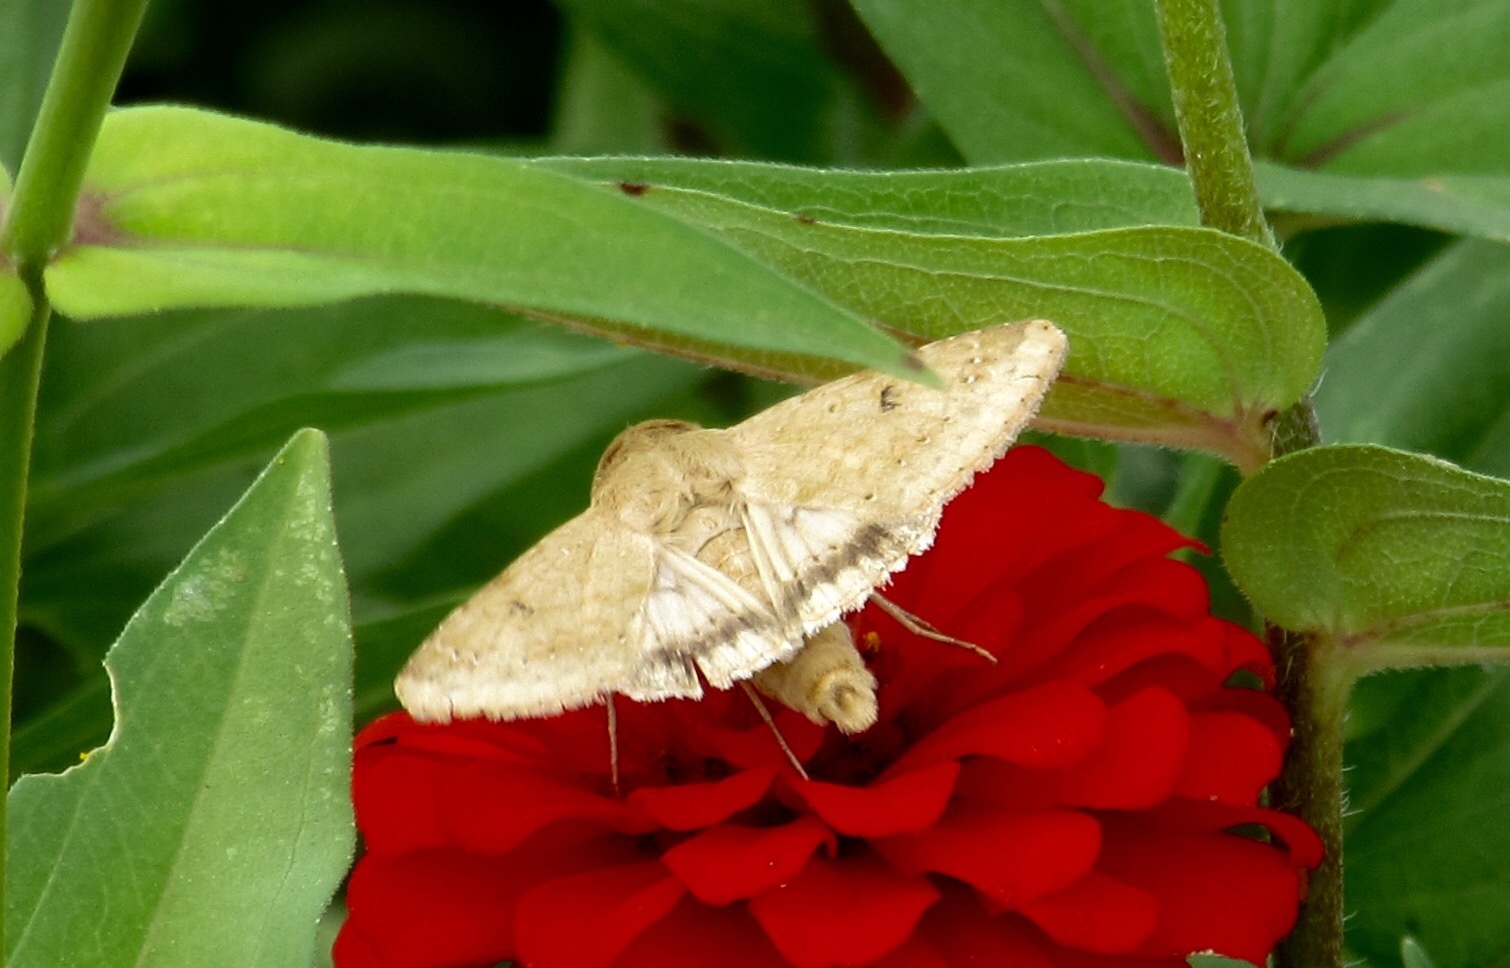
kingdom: Animalia
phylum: Arthropoda
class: Insecta
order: Lepidoptera
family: Noctuidae
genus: Helicoverpa
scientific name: Helicoverpa zea
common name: Bollworm
